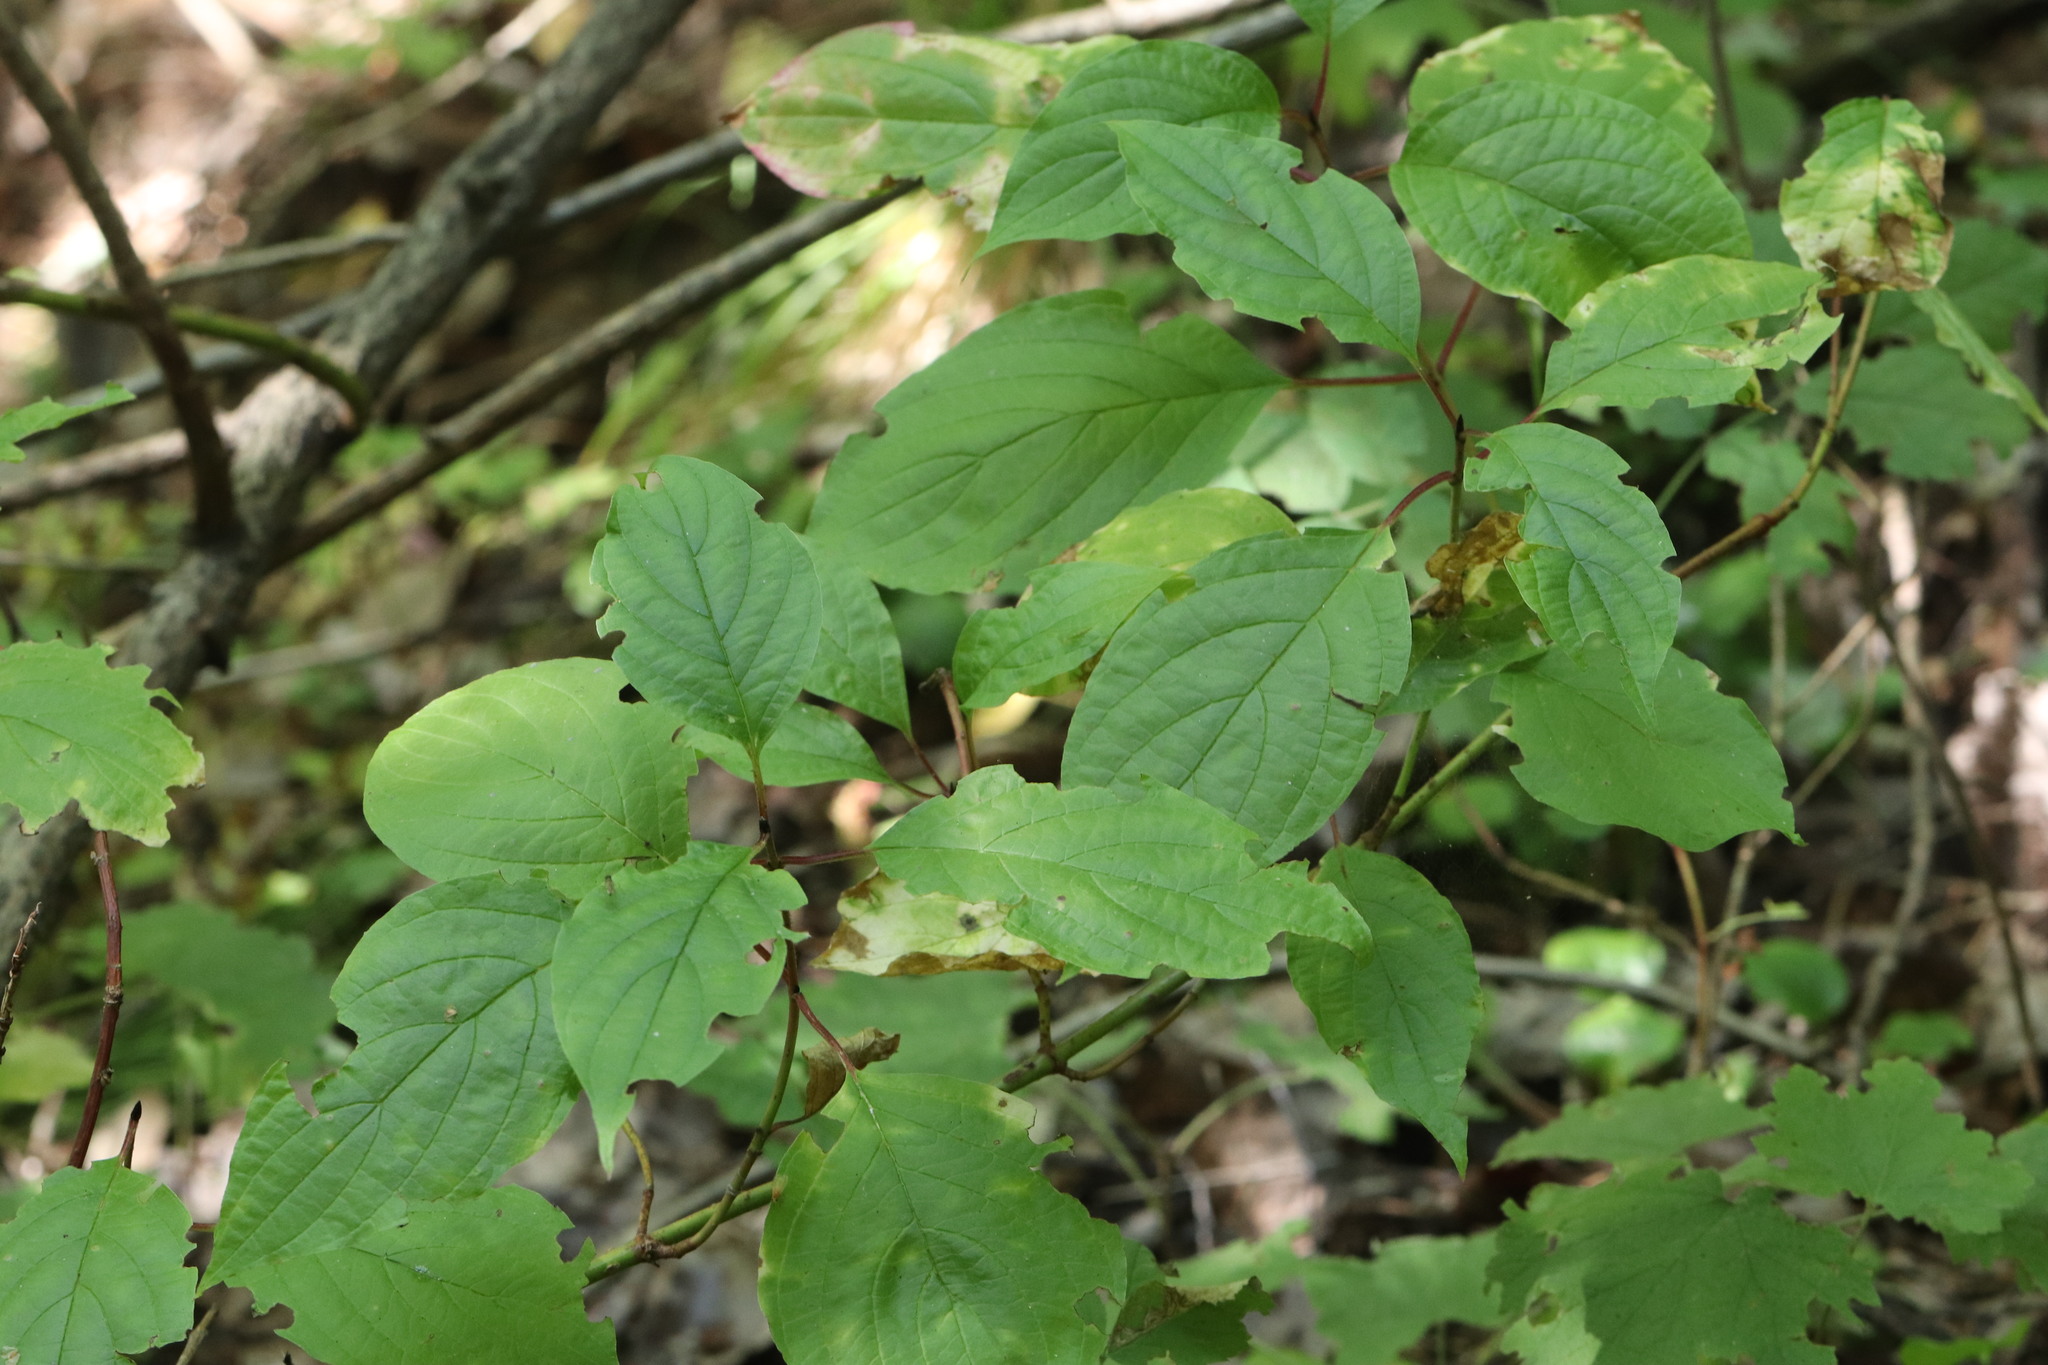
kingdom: Plantae
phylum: Tracheophyta
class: Magnoliopsida
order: Cornales
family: Cornaceae
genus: Cornus
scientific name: Cornus alba
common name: White dogwood
